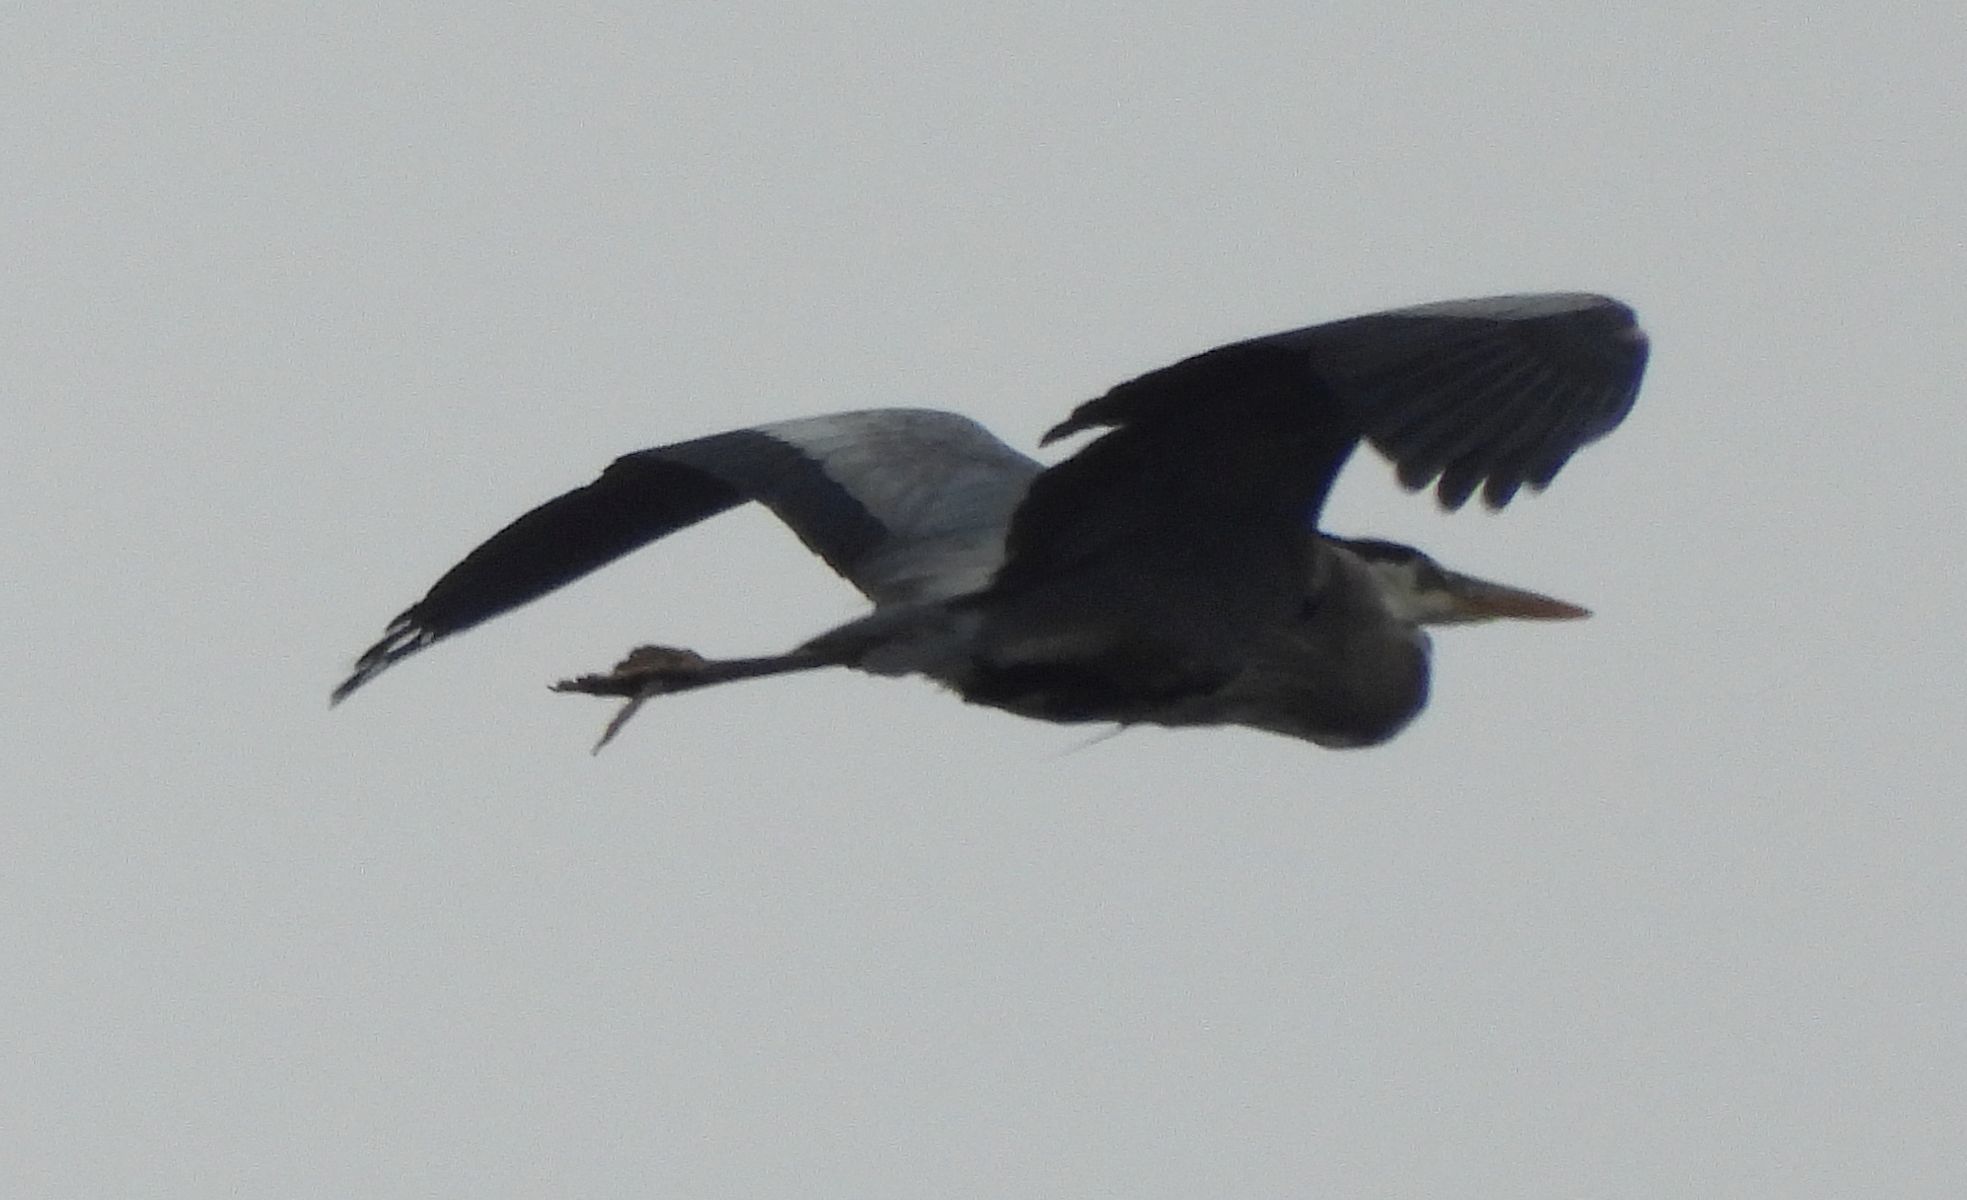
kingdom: Animalia
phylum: Chordata
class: Aves
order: Pelecaniformes
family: Ardeidae
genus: Ardea
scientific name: Ardea herodias
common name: Great blue heron
